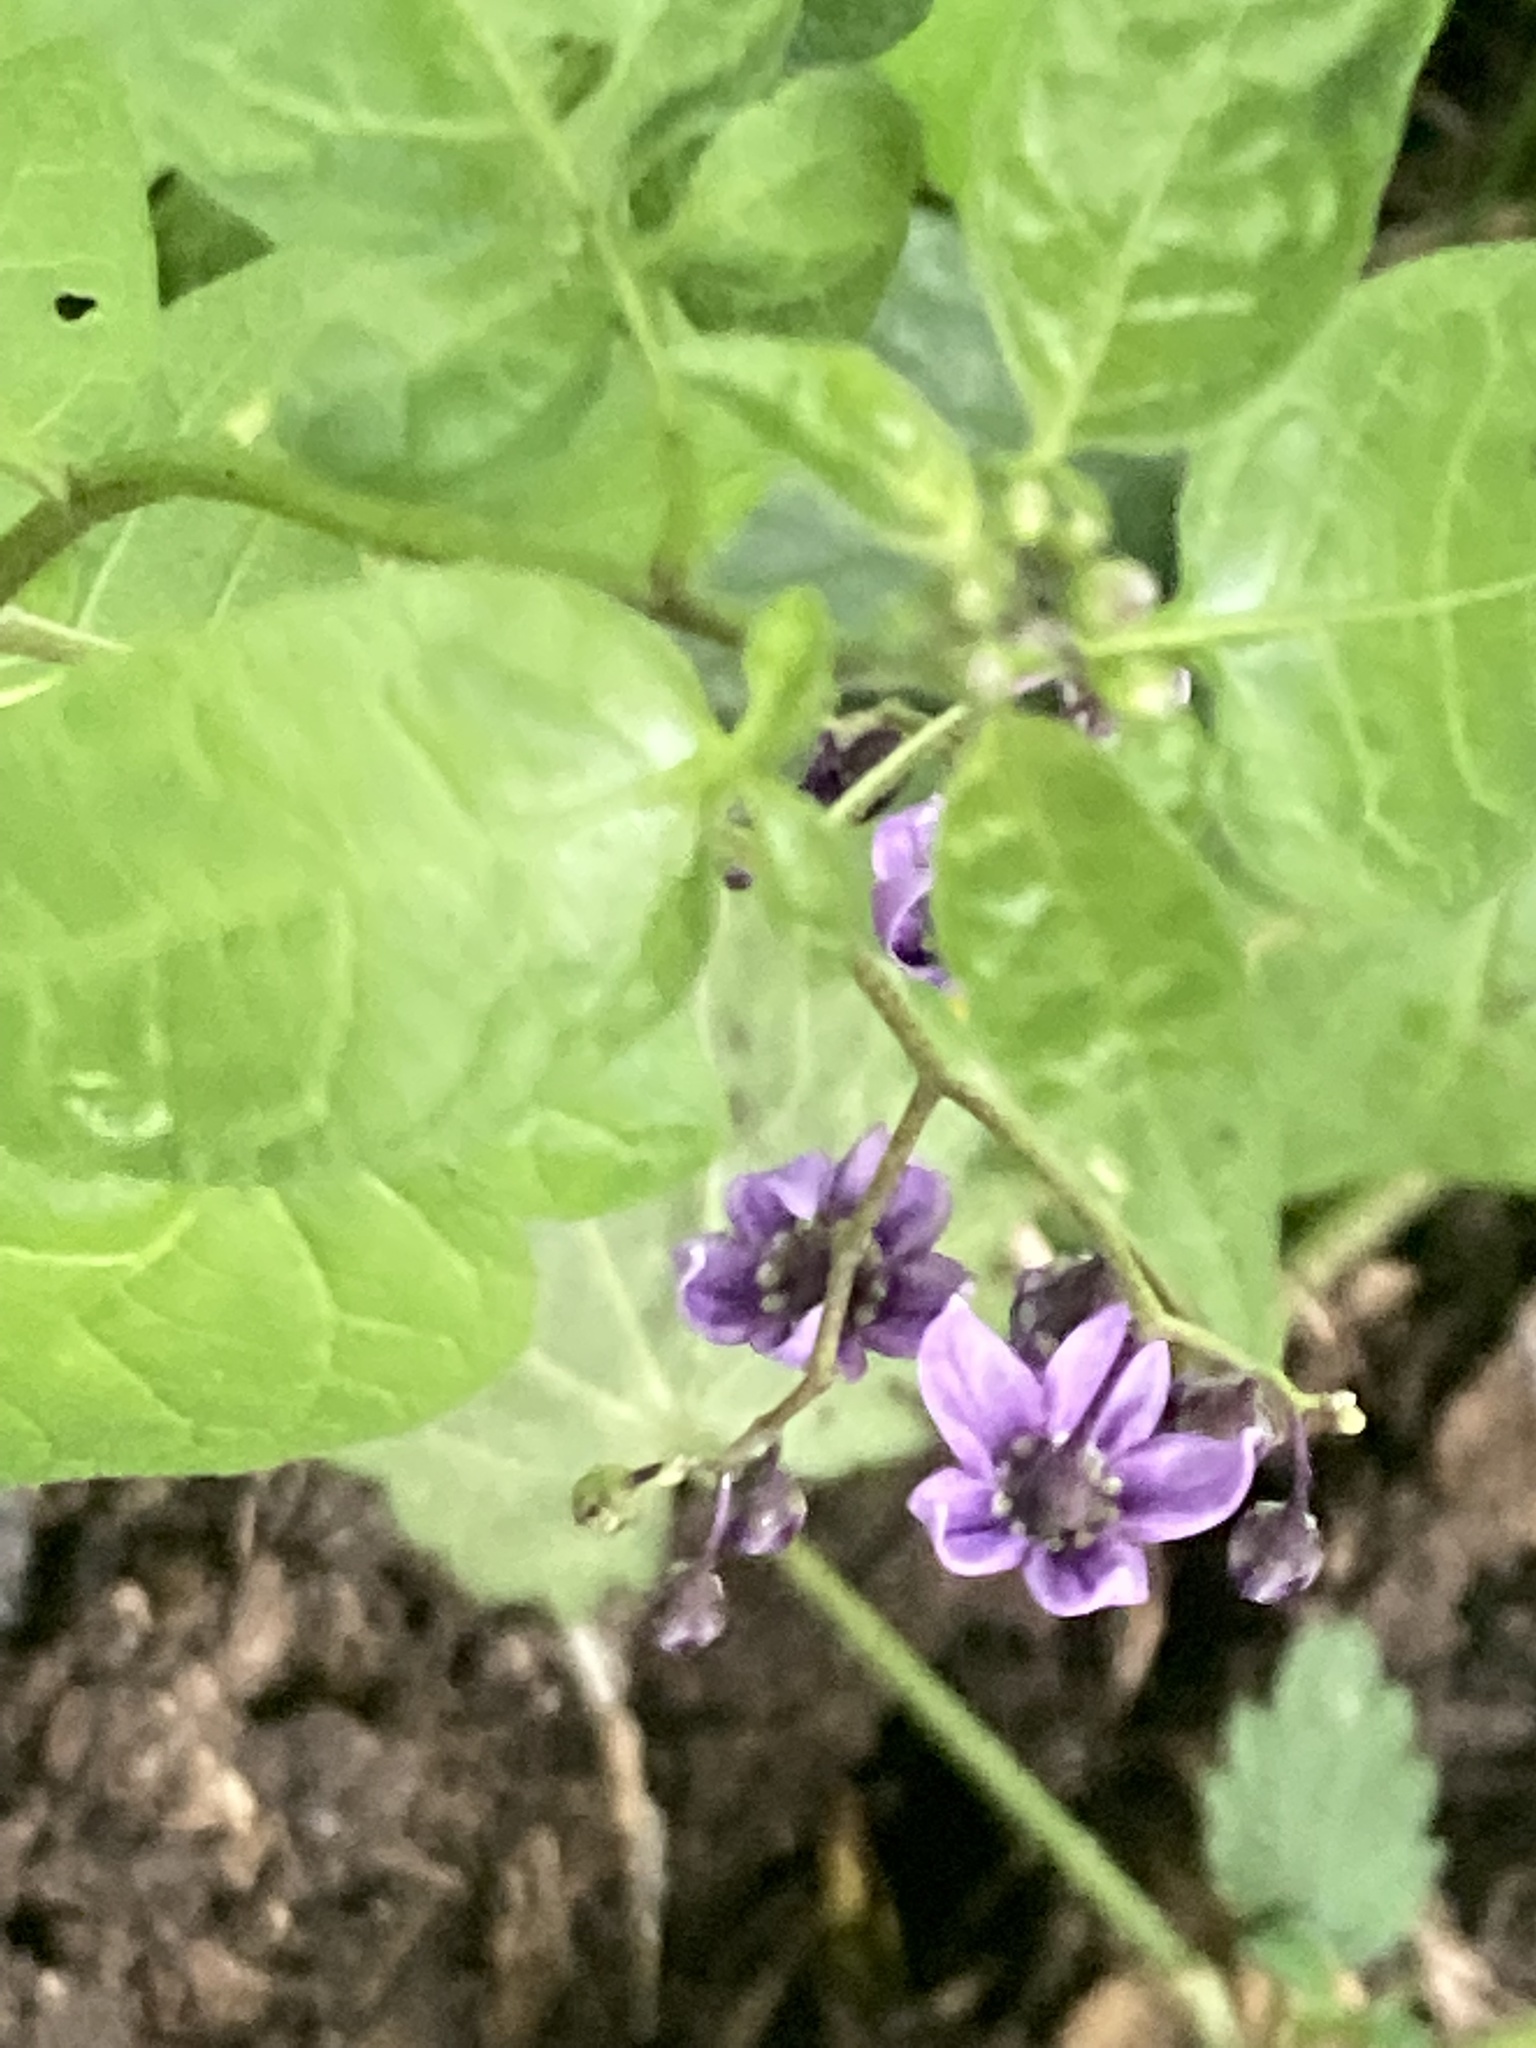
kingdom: Plantae
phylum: Tracheophyta
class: Magnoliopsida
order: Solanales
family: Solanaceae
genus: Solanum
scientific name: Solanum dulcamara
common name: Climbing nightshade
